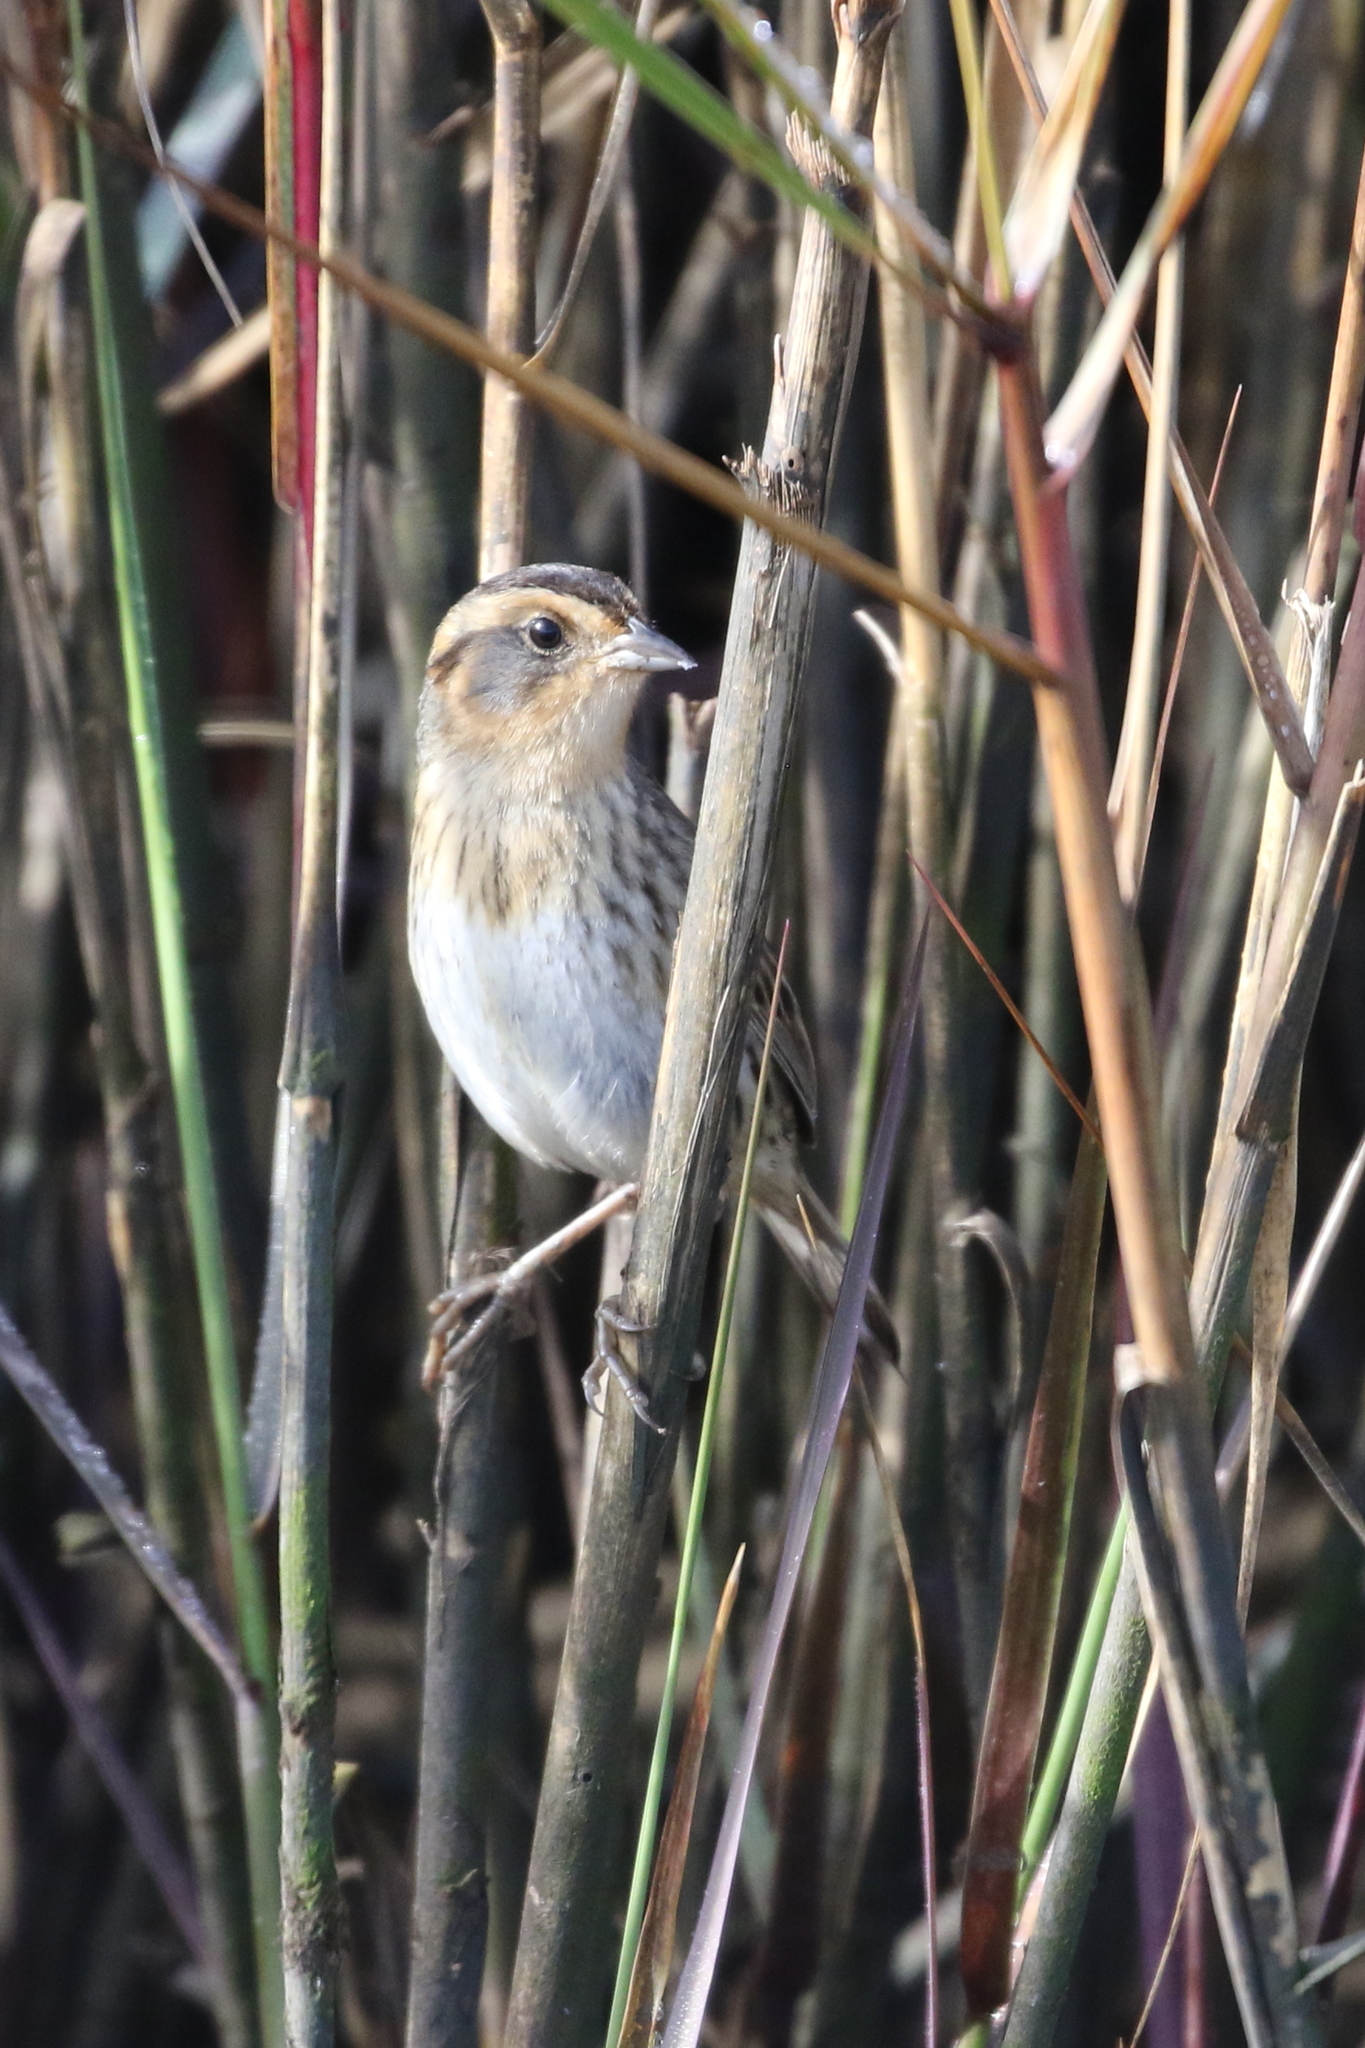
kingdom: Animalia
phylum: Chordata
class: Aves
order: Passeriformes
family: Passerellidae
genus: Ammospiza
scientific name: Ammospiza nelsoni
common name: Nelson's sparrow
